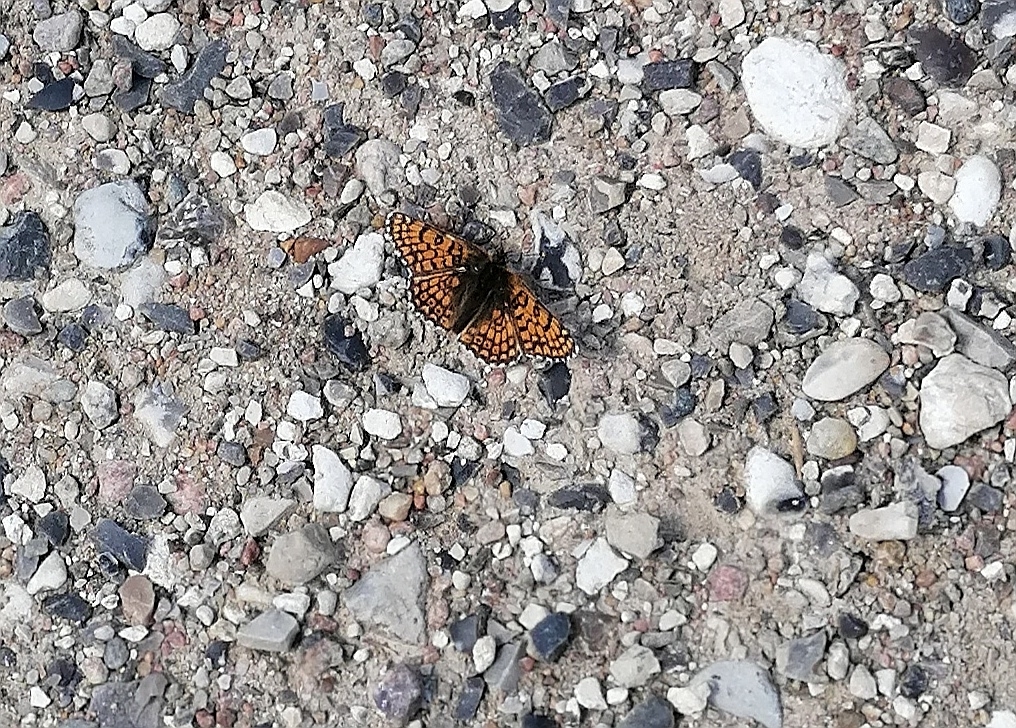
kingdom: Animalia
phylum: Arthropoda
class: Insecta
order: Lepidoptera
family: Nymphalidae
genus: Melitaea
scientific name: Melitaea cinxia
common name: Glanville fritillary
